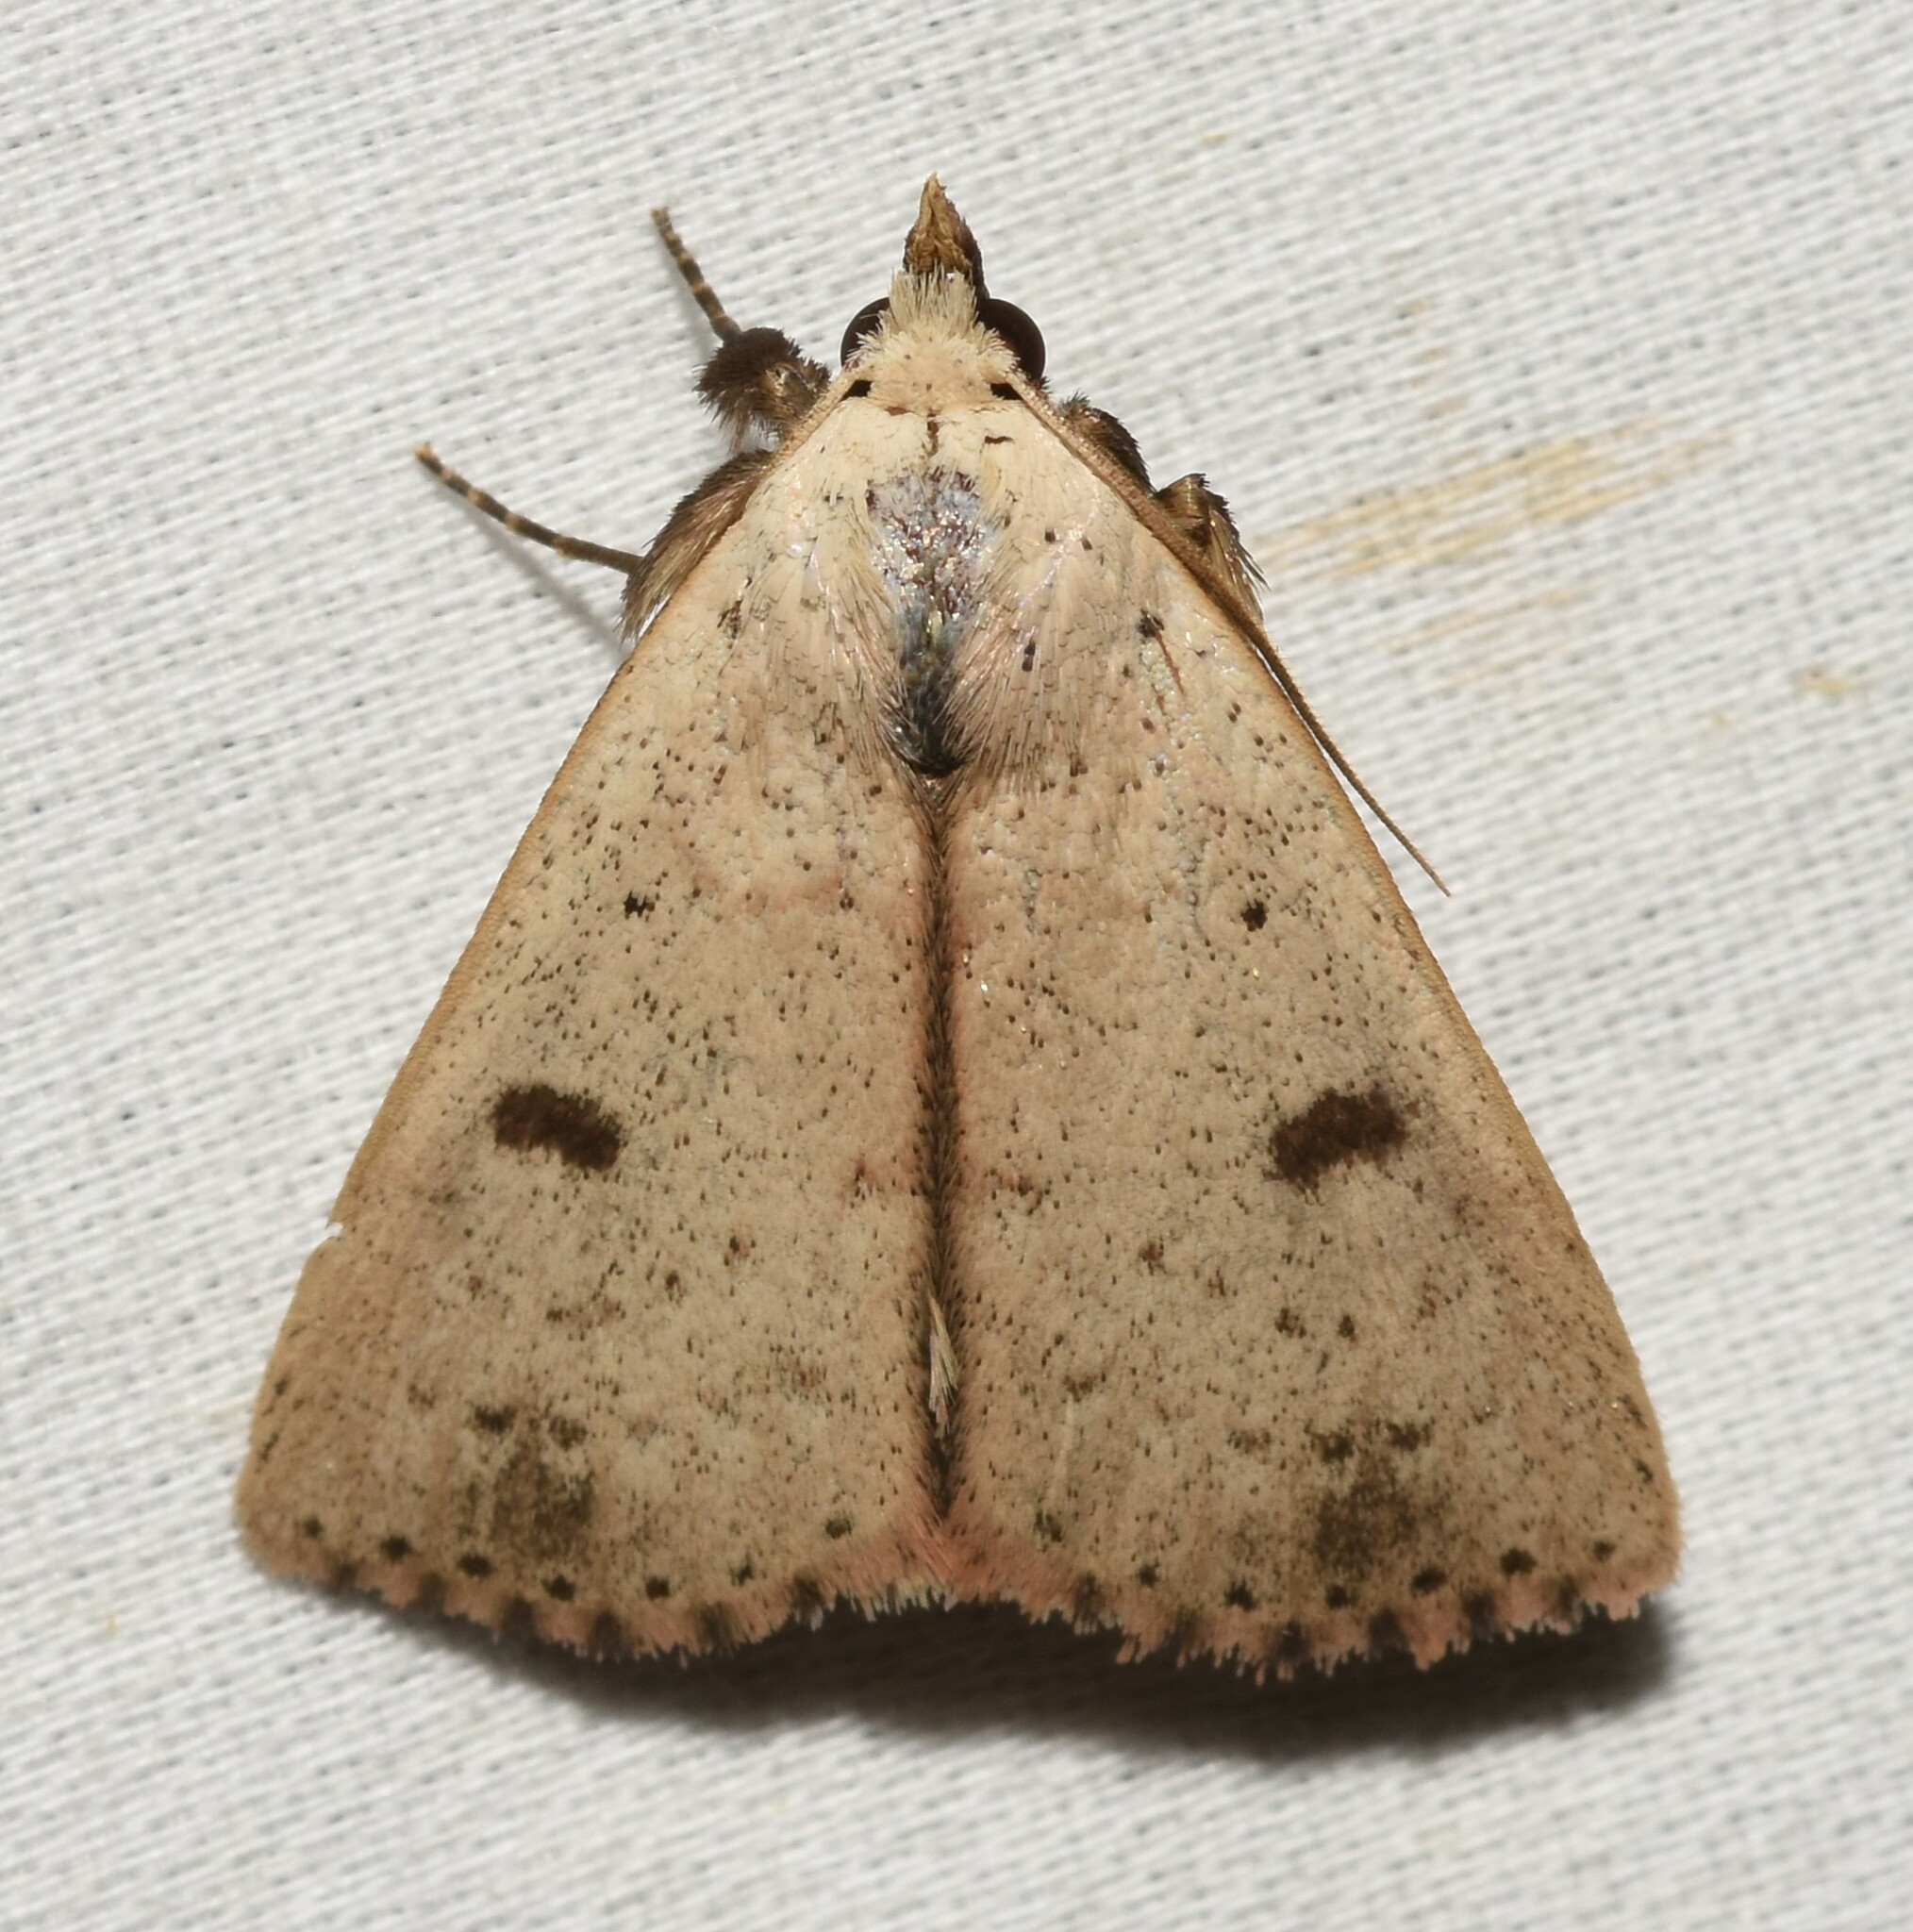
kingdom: Animalia
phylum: Arthropoda
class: Insecta
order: Lepidoptera
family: Erebidae
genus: Scolecocampa
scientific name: Scolecocampa liburna
